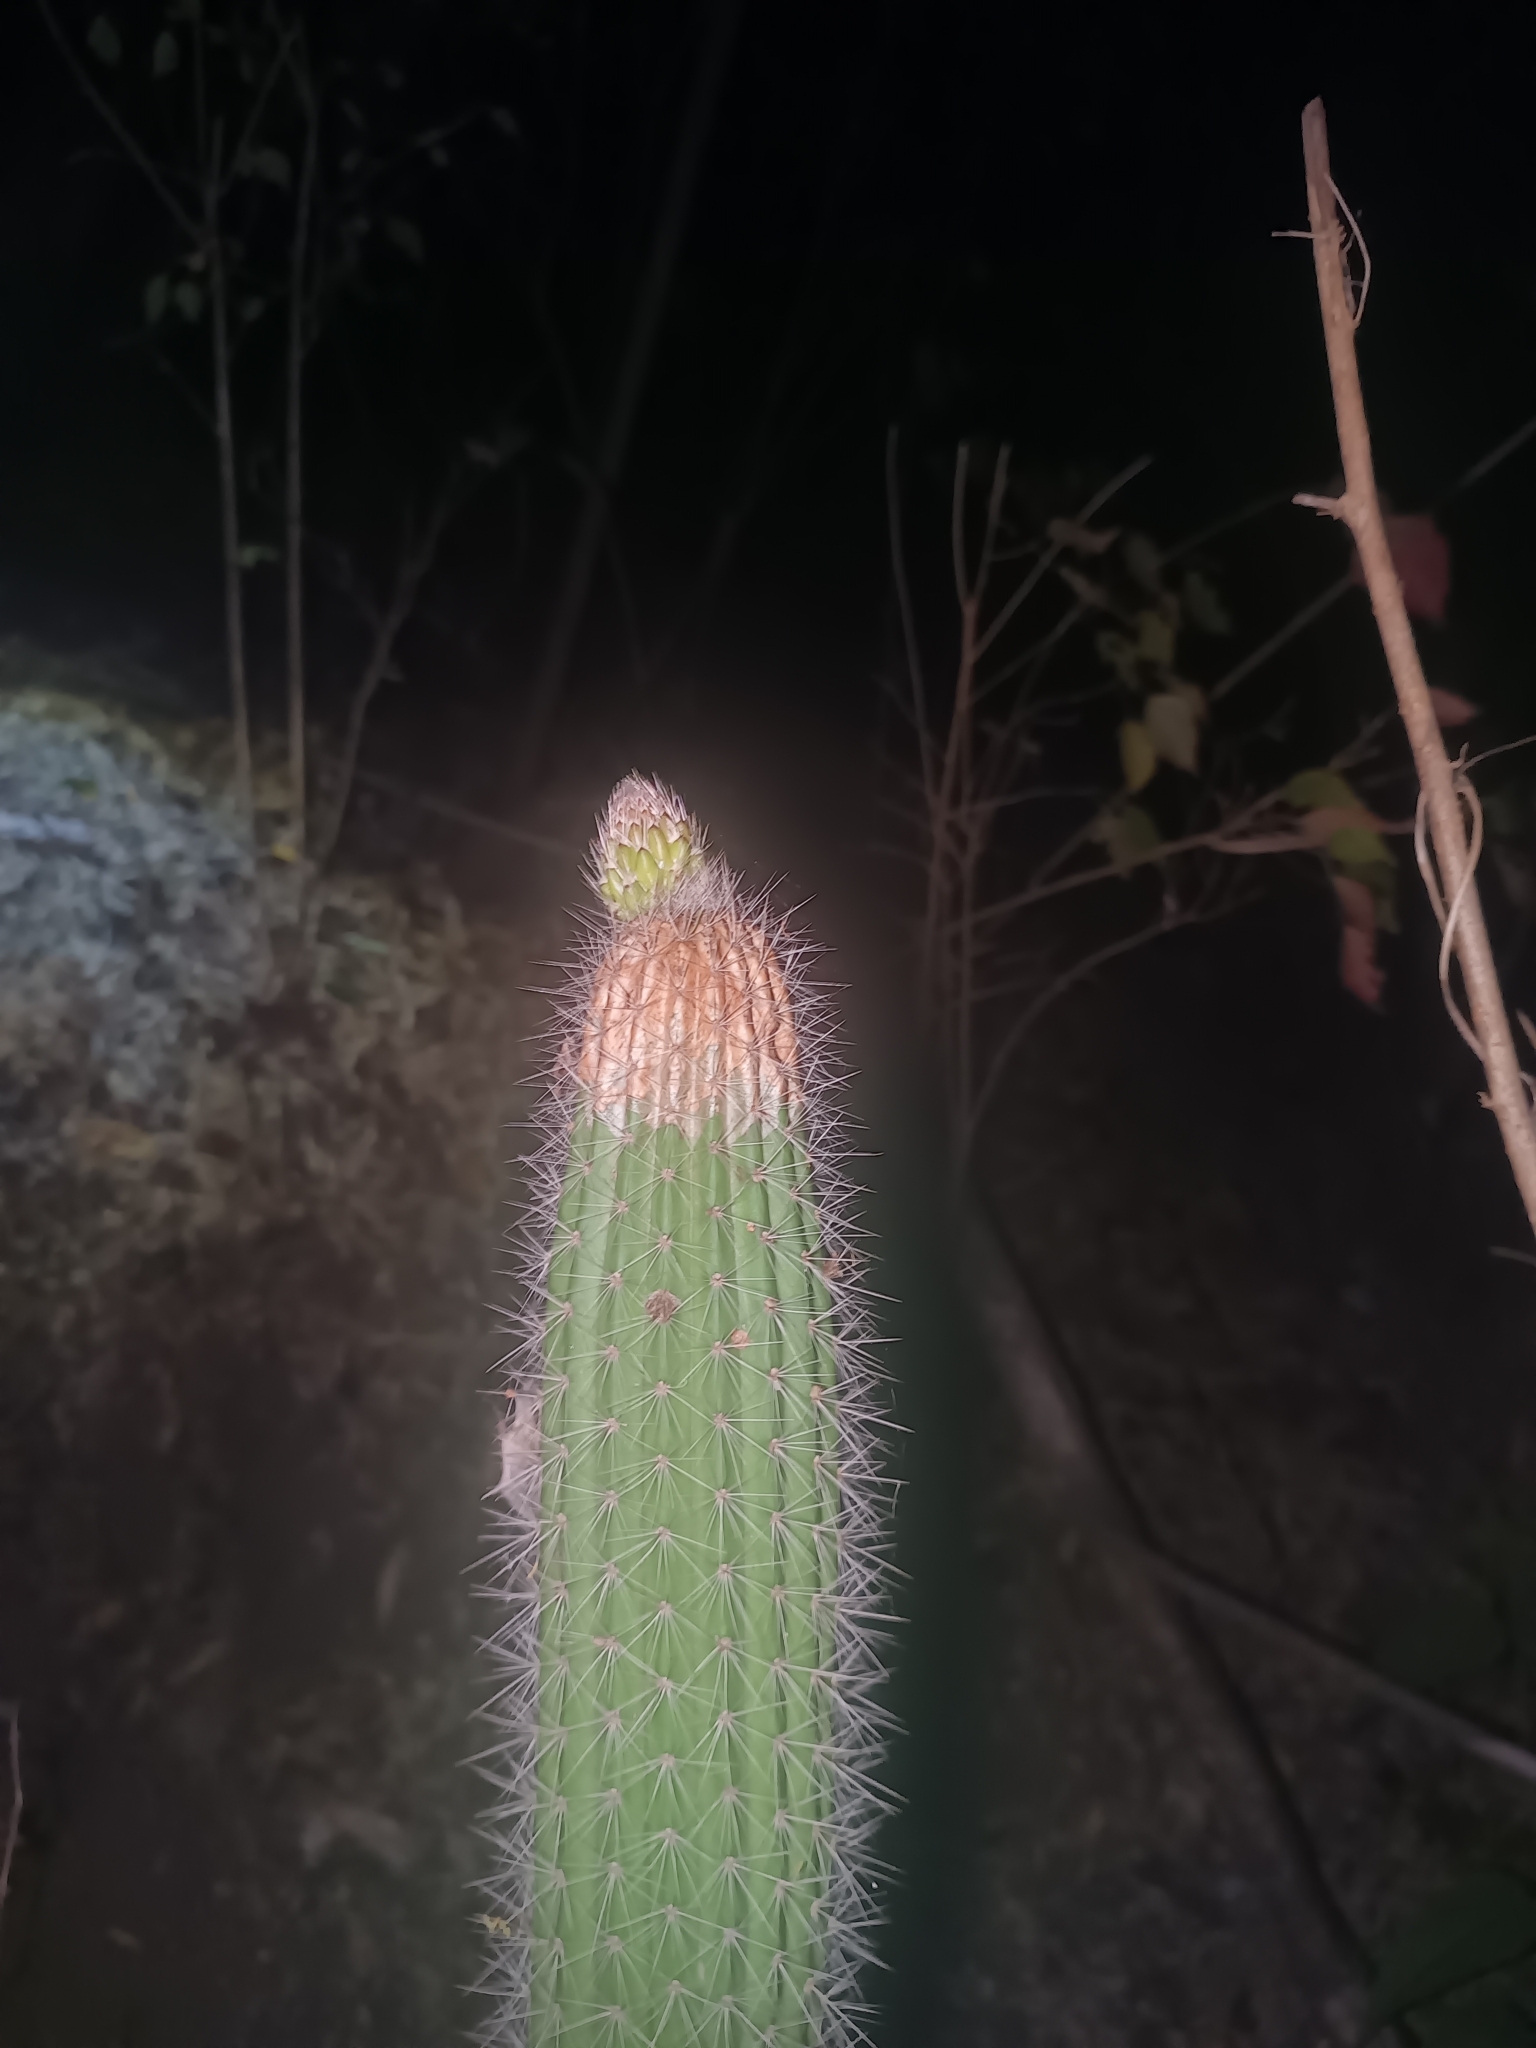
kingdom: Plantae
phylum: Tracheophyta
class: Magnoliopsida
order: Caryophyllales
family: Cactaceae
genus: Peniocereus
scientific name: Peniocereus serpentinus
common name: Serpent cactus
